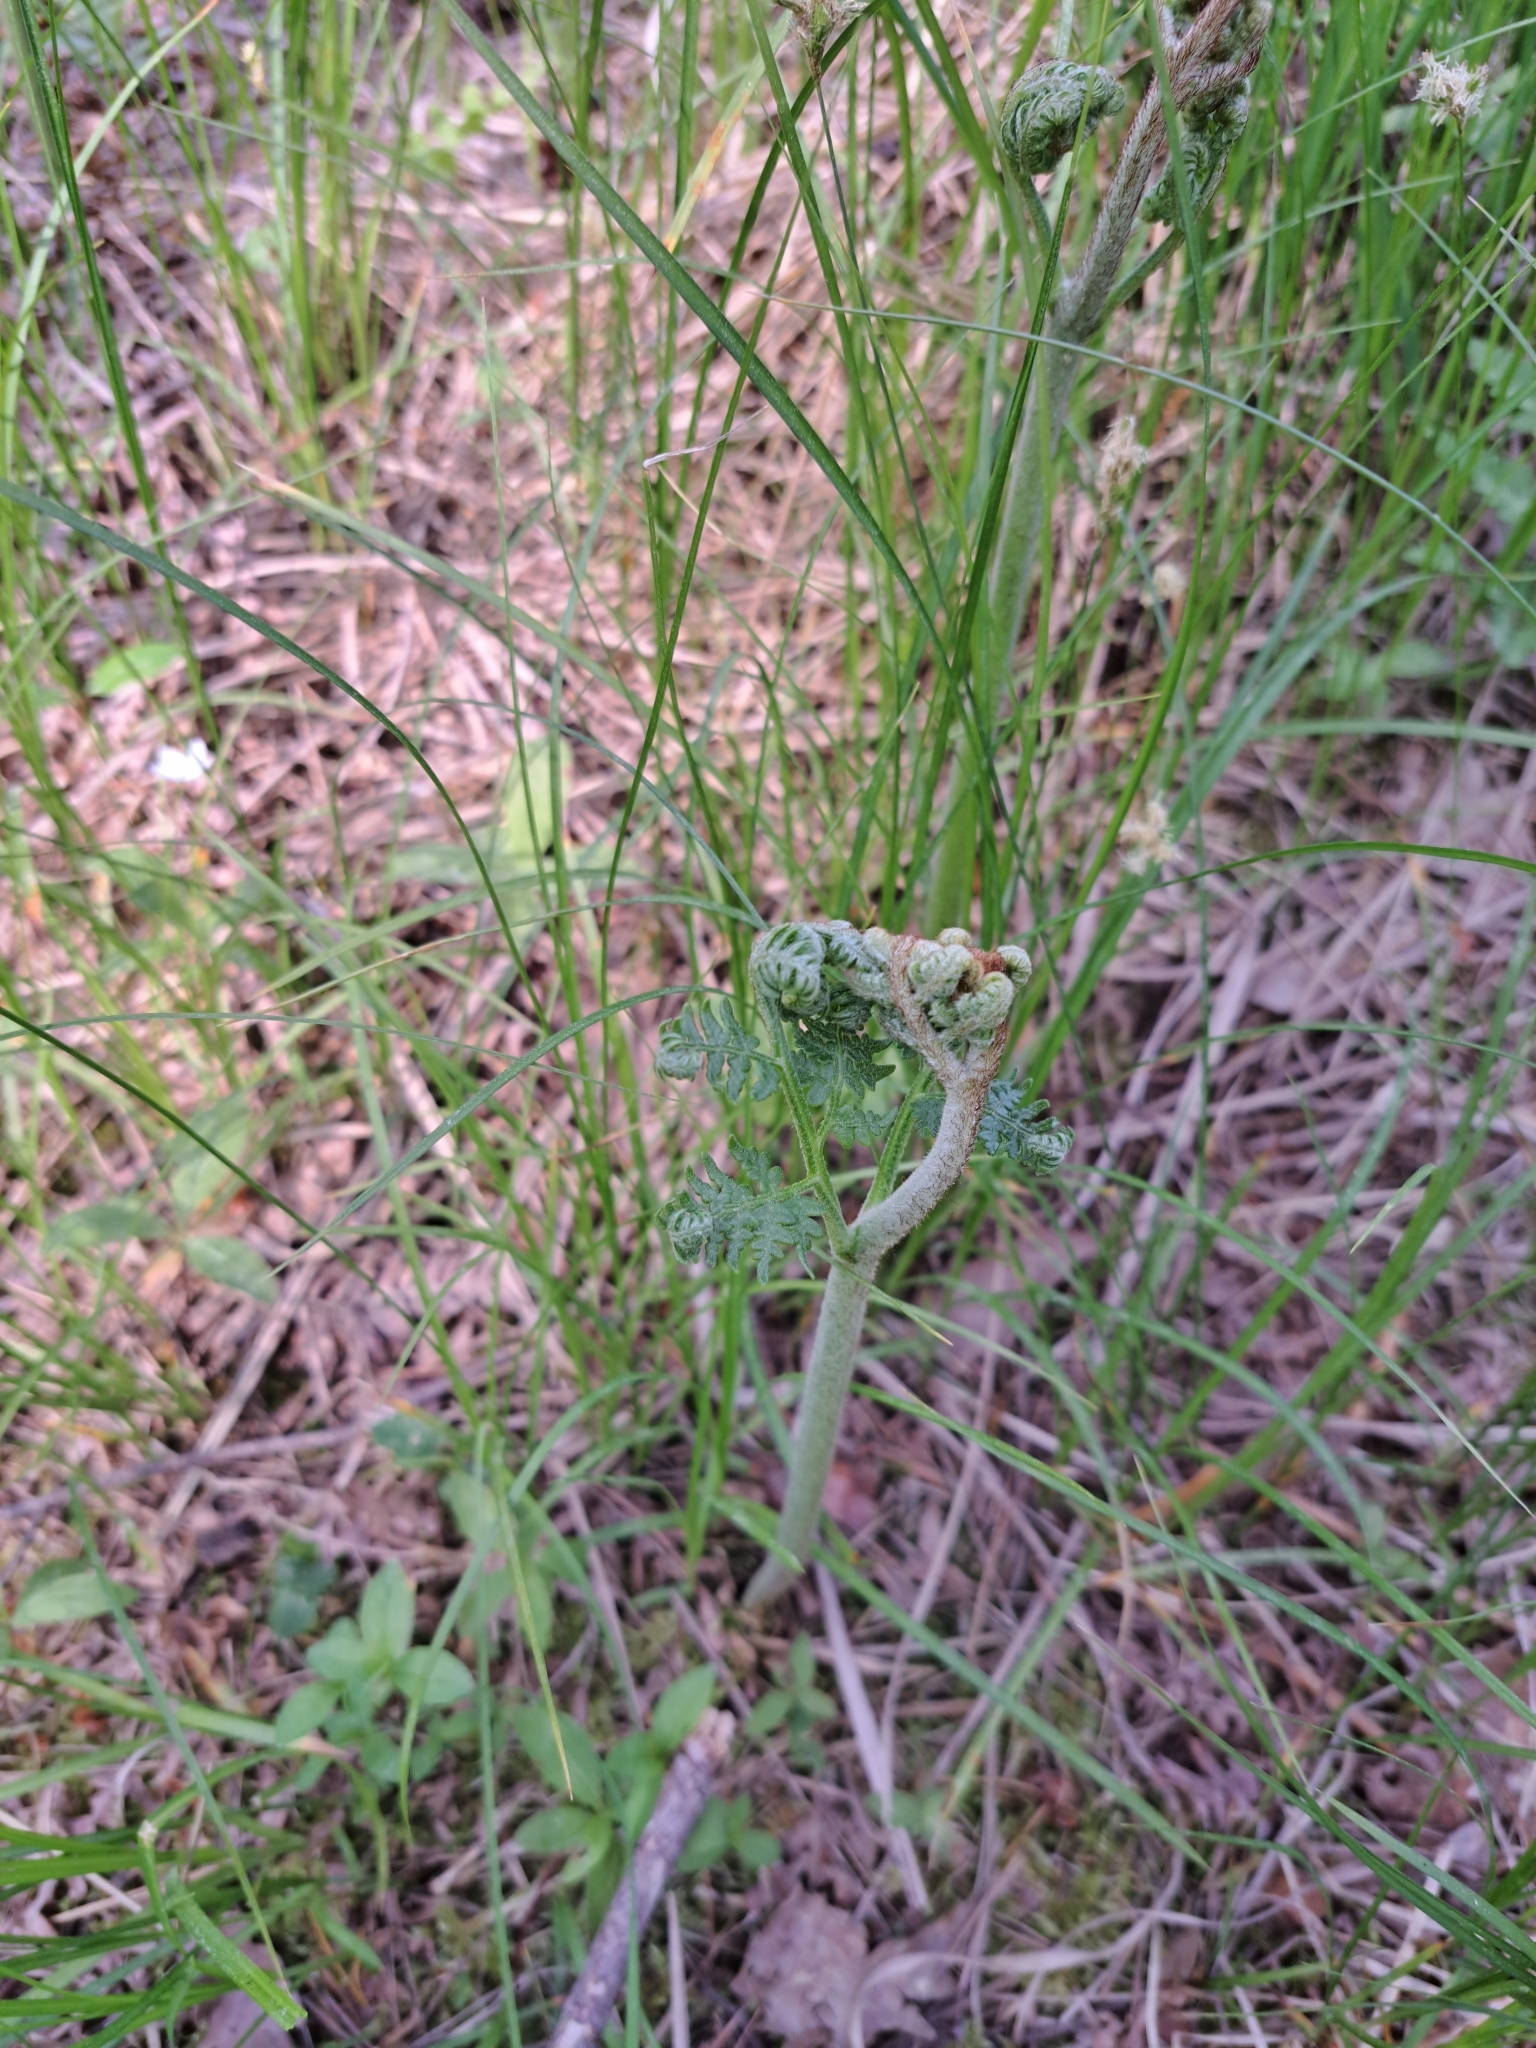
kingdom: Plantae
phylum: Tracheophyta
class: Polypodiopsida
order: Polypodiales
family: Dennstaedtiaceae
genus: Pteridium
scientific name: Pteridium aquilinum
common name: Bracken
